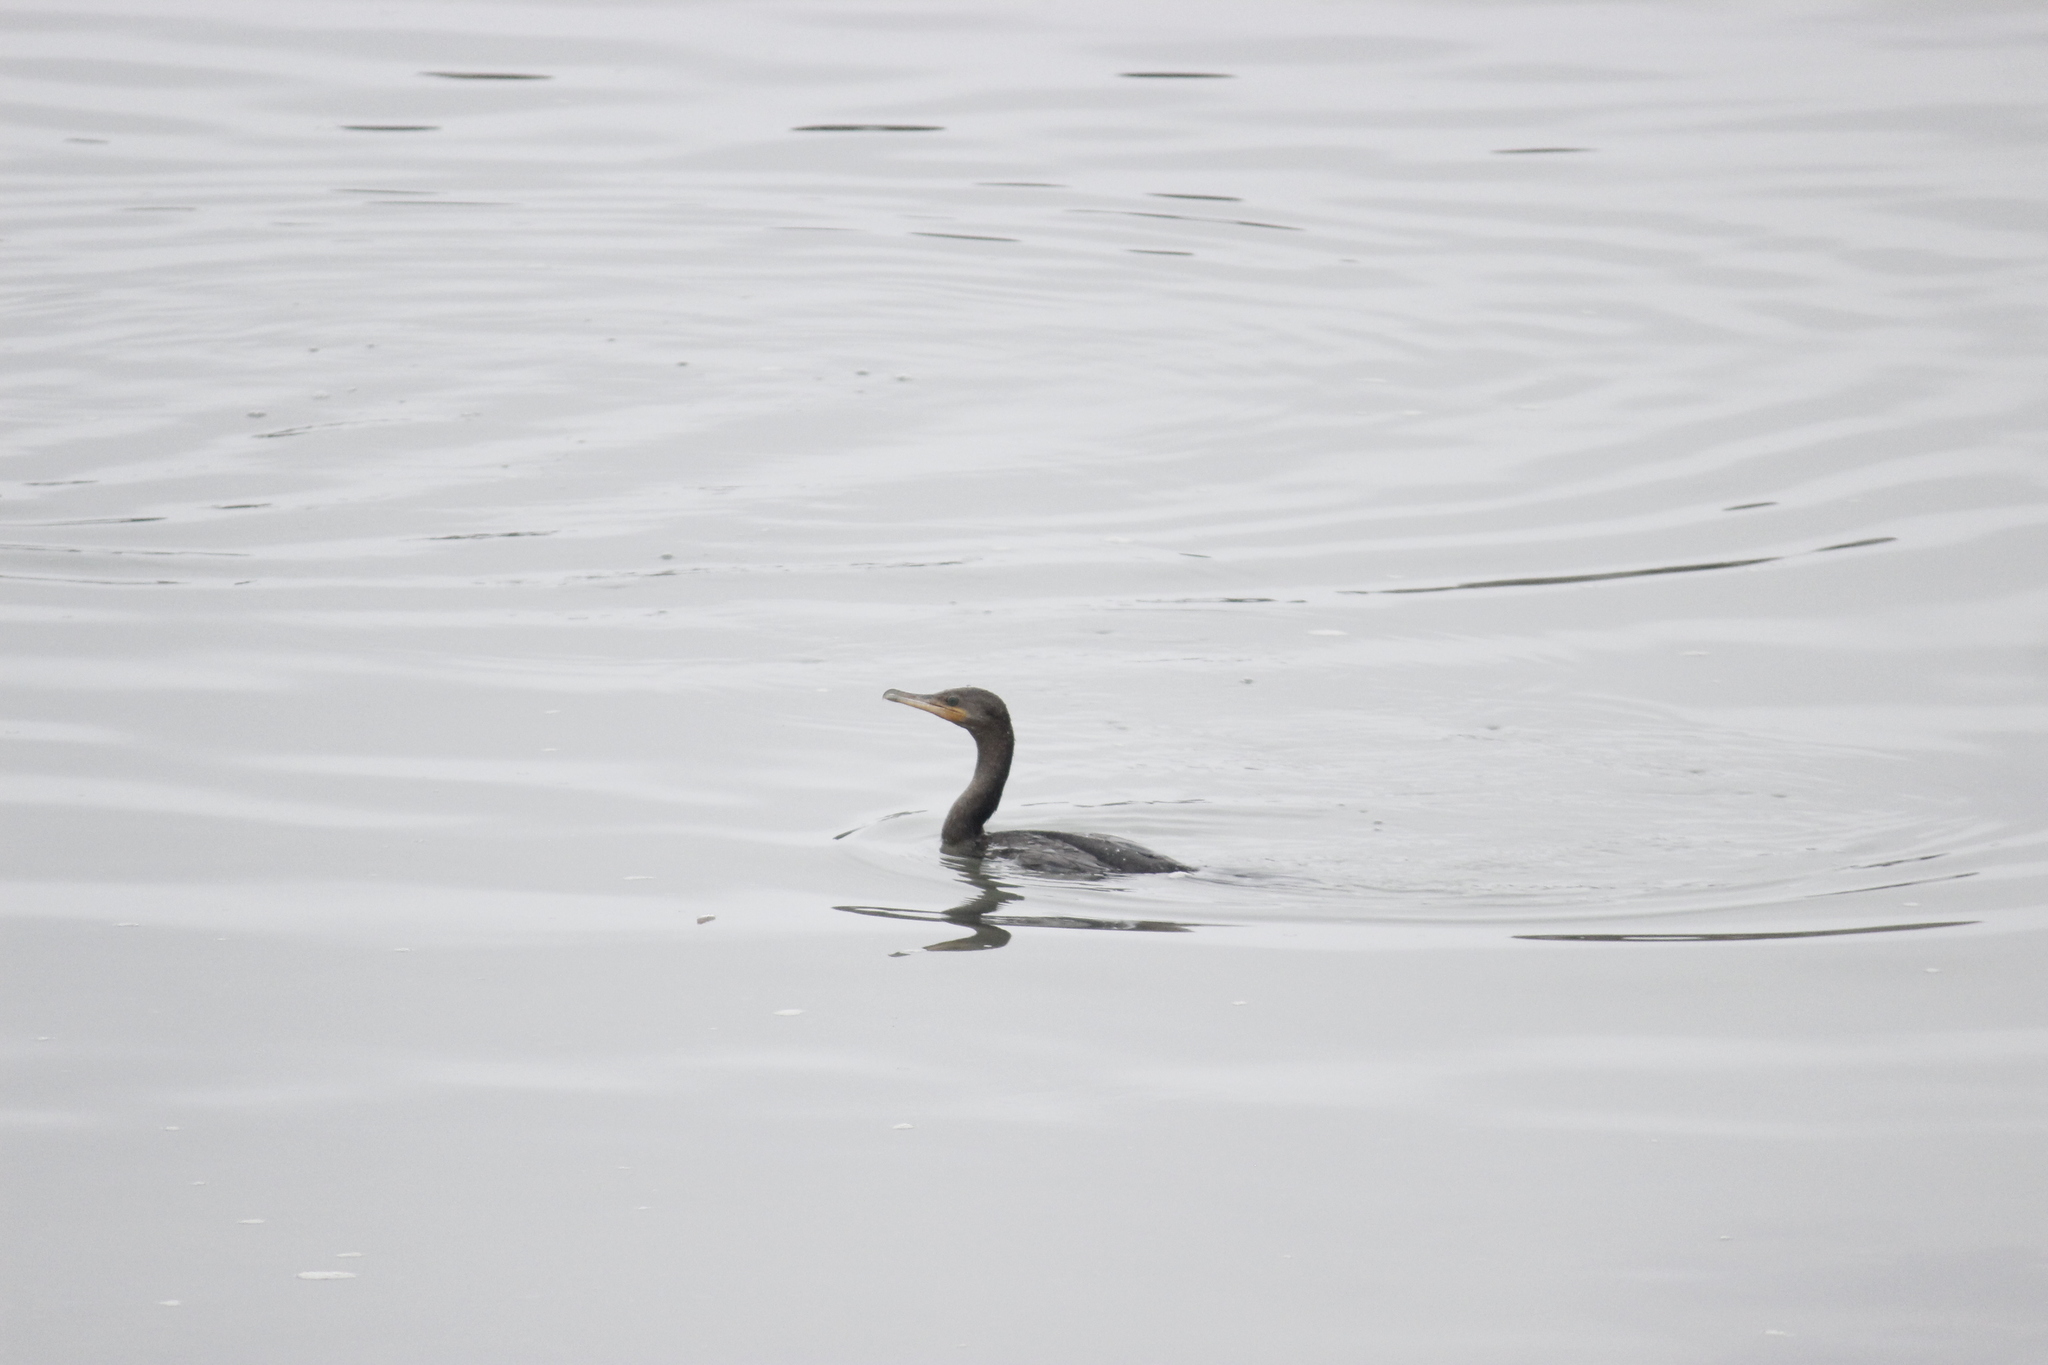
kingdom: Animalia
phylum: Chordata
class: Aves
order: Suliformes
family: Phalacrocoracidae
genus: Phalacrocorax
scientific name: Phalacrocorax brasilianus
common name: Neotropic cormorant
